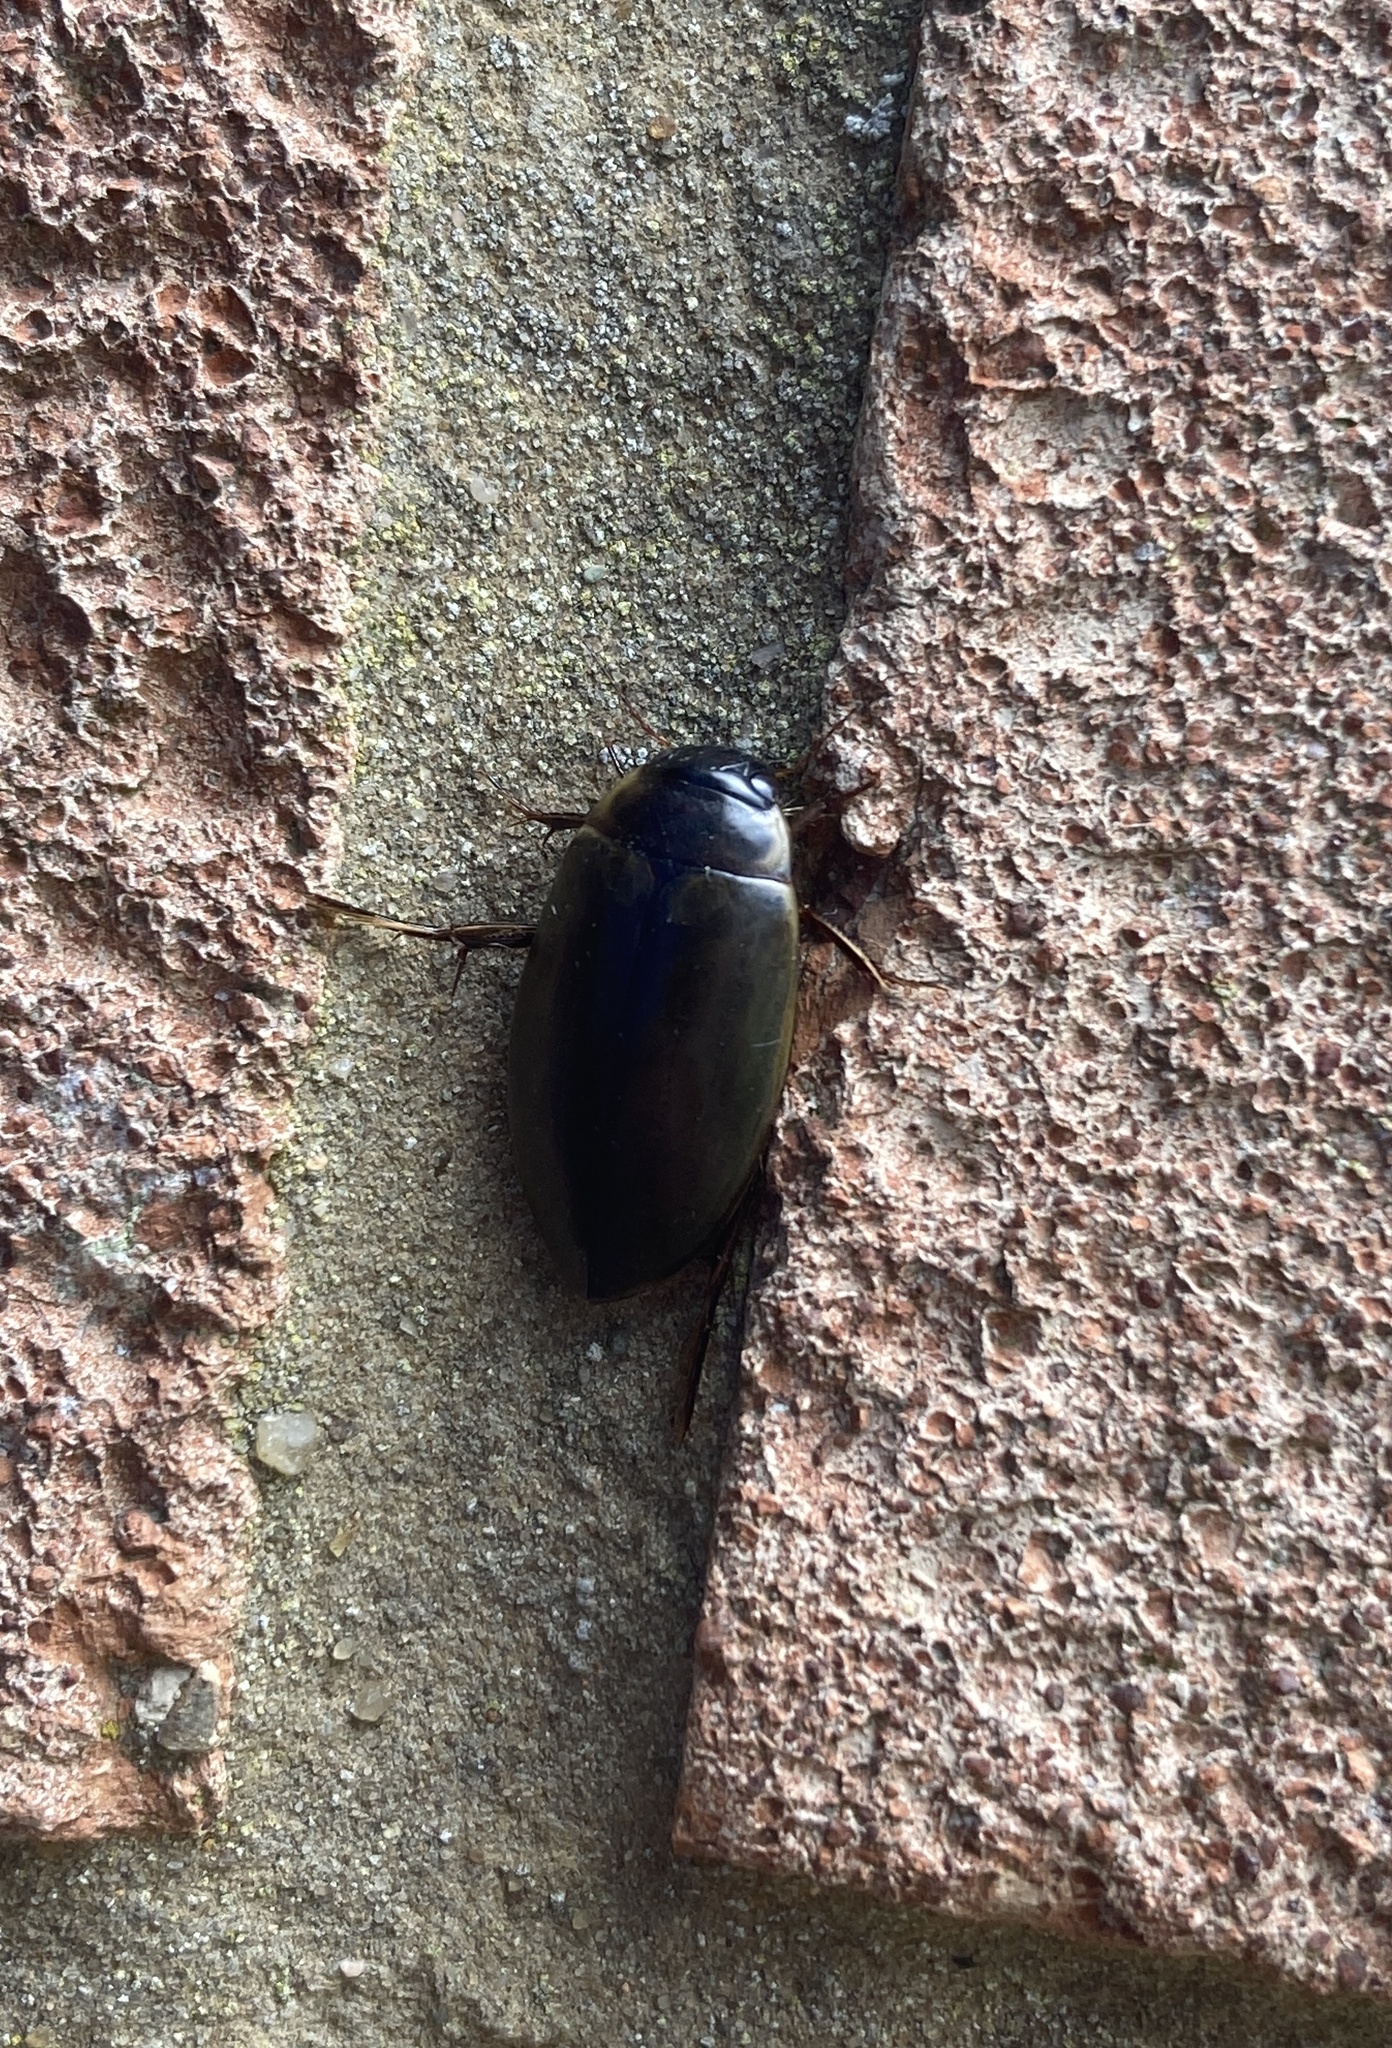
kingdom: Animalia
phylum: Arthropoda
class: Insecta
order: Coleoptera
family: Dytiscidae
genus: Colymbetes
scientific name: Colymbetes fuscus
